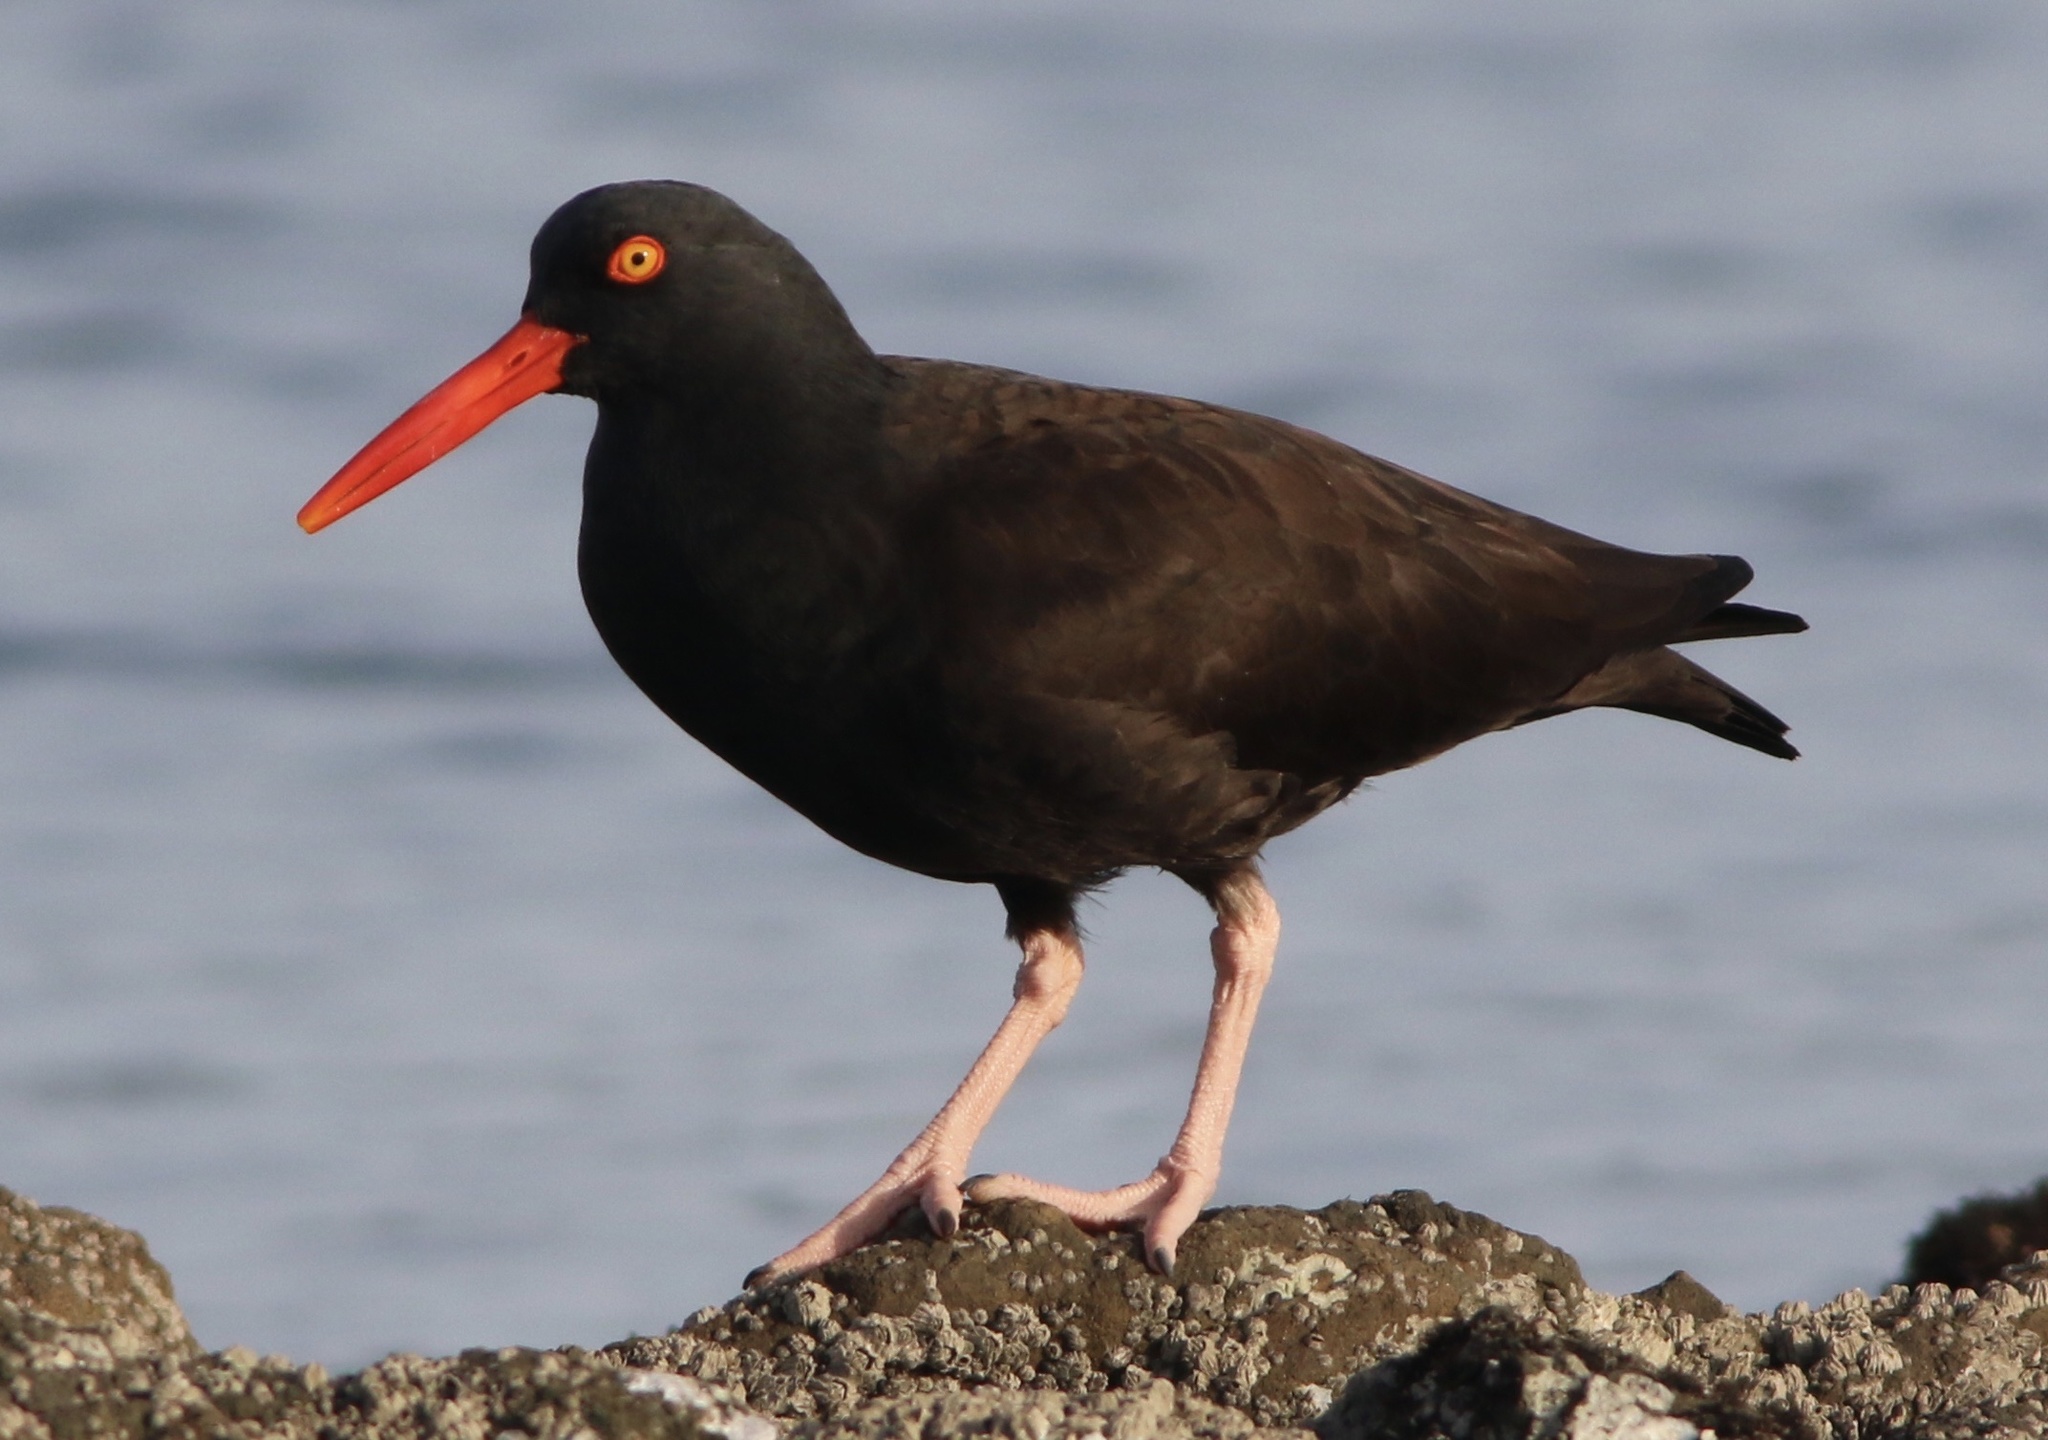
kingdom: Animalia
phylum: Chordata
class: Aves
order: Charadriiformes
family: Haematopodidae
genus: Haematopus
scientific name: Haematopus bachmani
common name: Black oystercatcher
